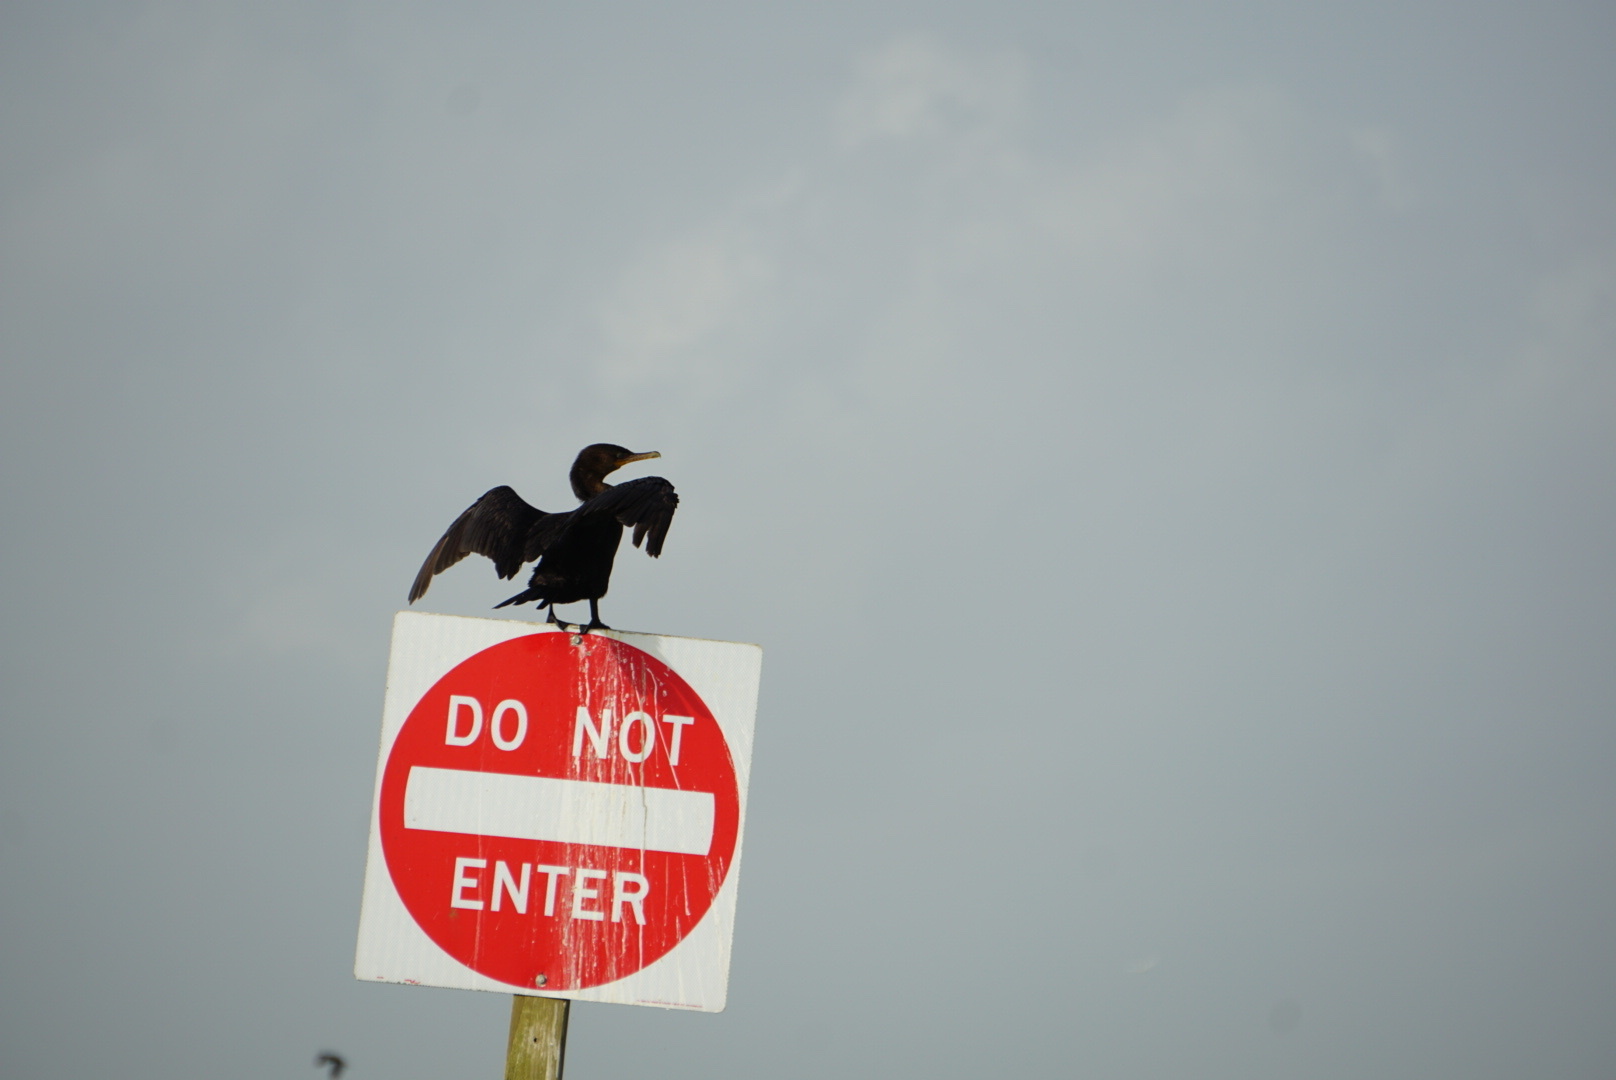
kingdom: Animalia
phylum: Chordata
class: Aves
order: Suliformes
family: Phalacrocoracidae
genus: Phalacrocorax
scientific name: Phalacrocorax brasilianus
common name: Neotropic cormorant
